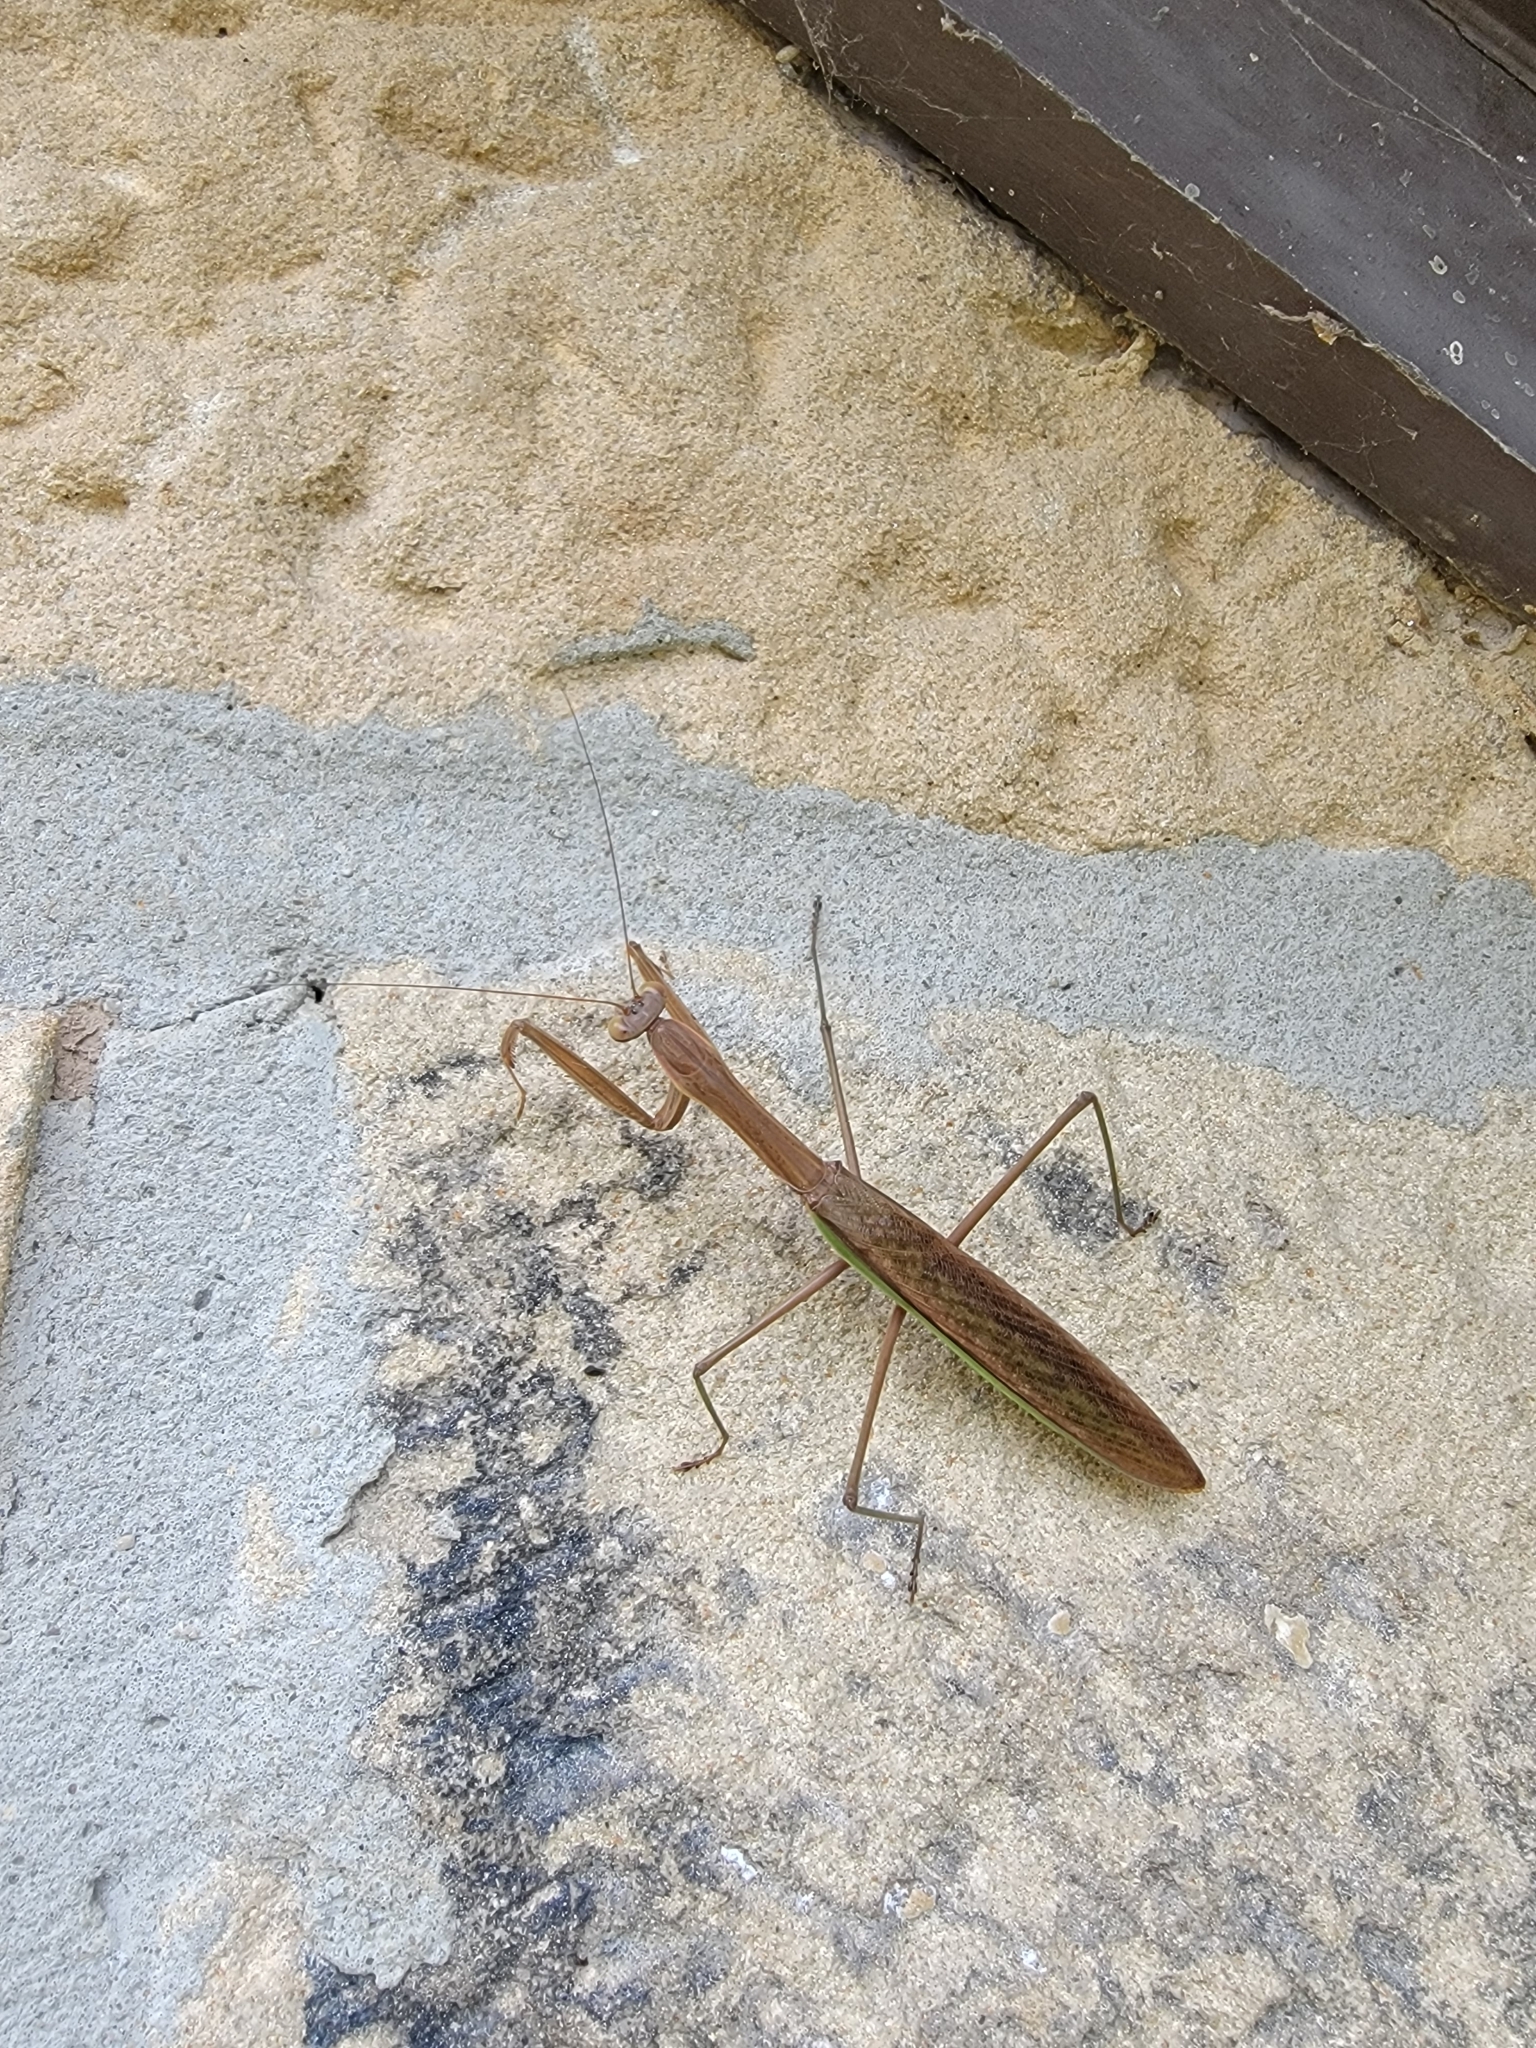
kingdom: Animalia
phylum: Arthropoda
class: Insecta
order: Mantodea
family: Mantidae
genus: Tenodera
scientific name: Tenodera sinensis
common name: Chinese mantis
